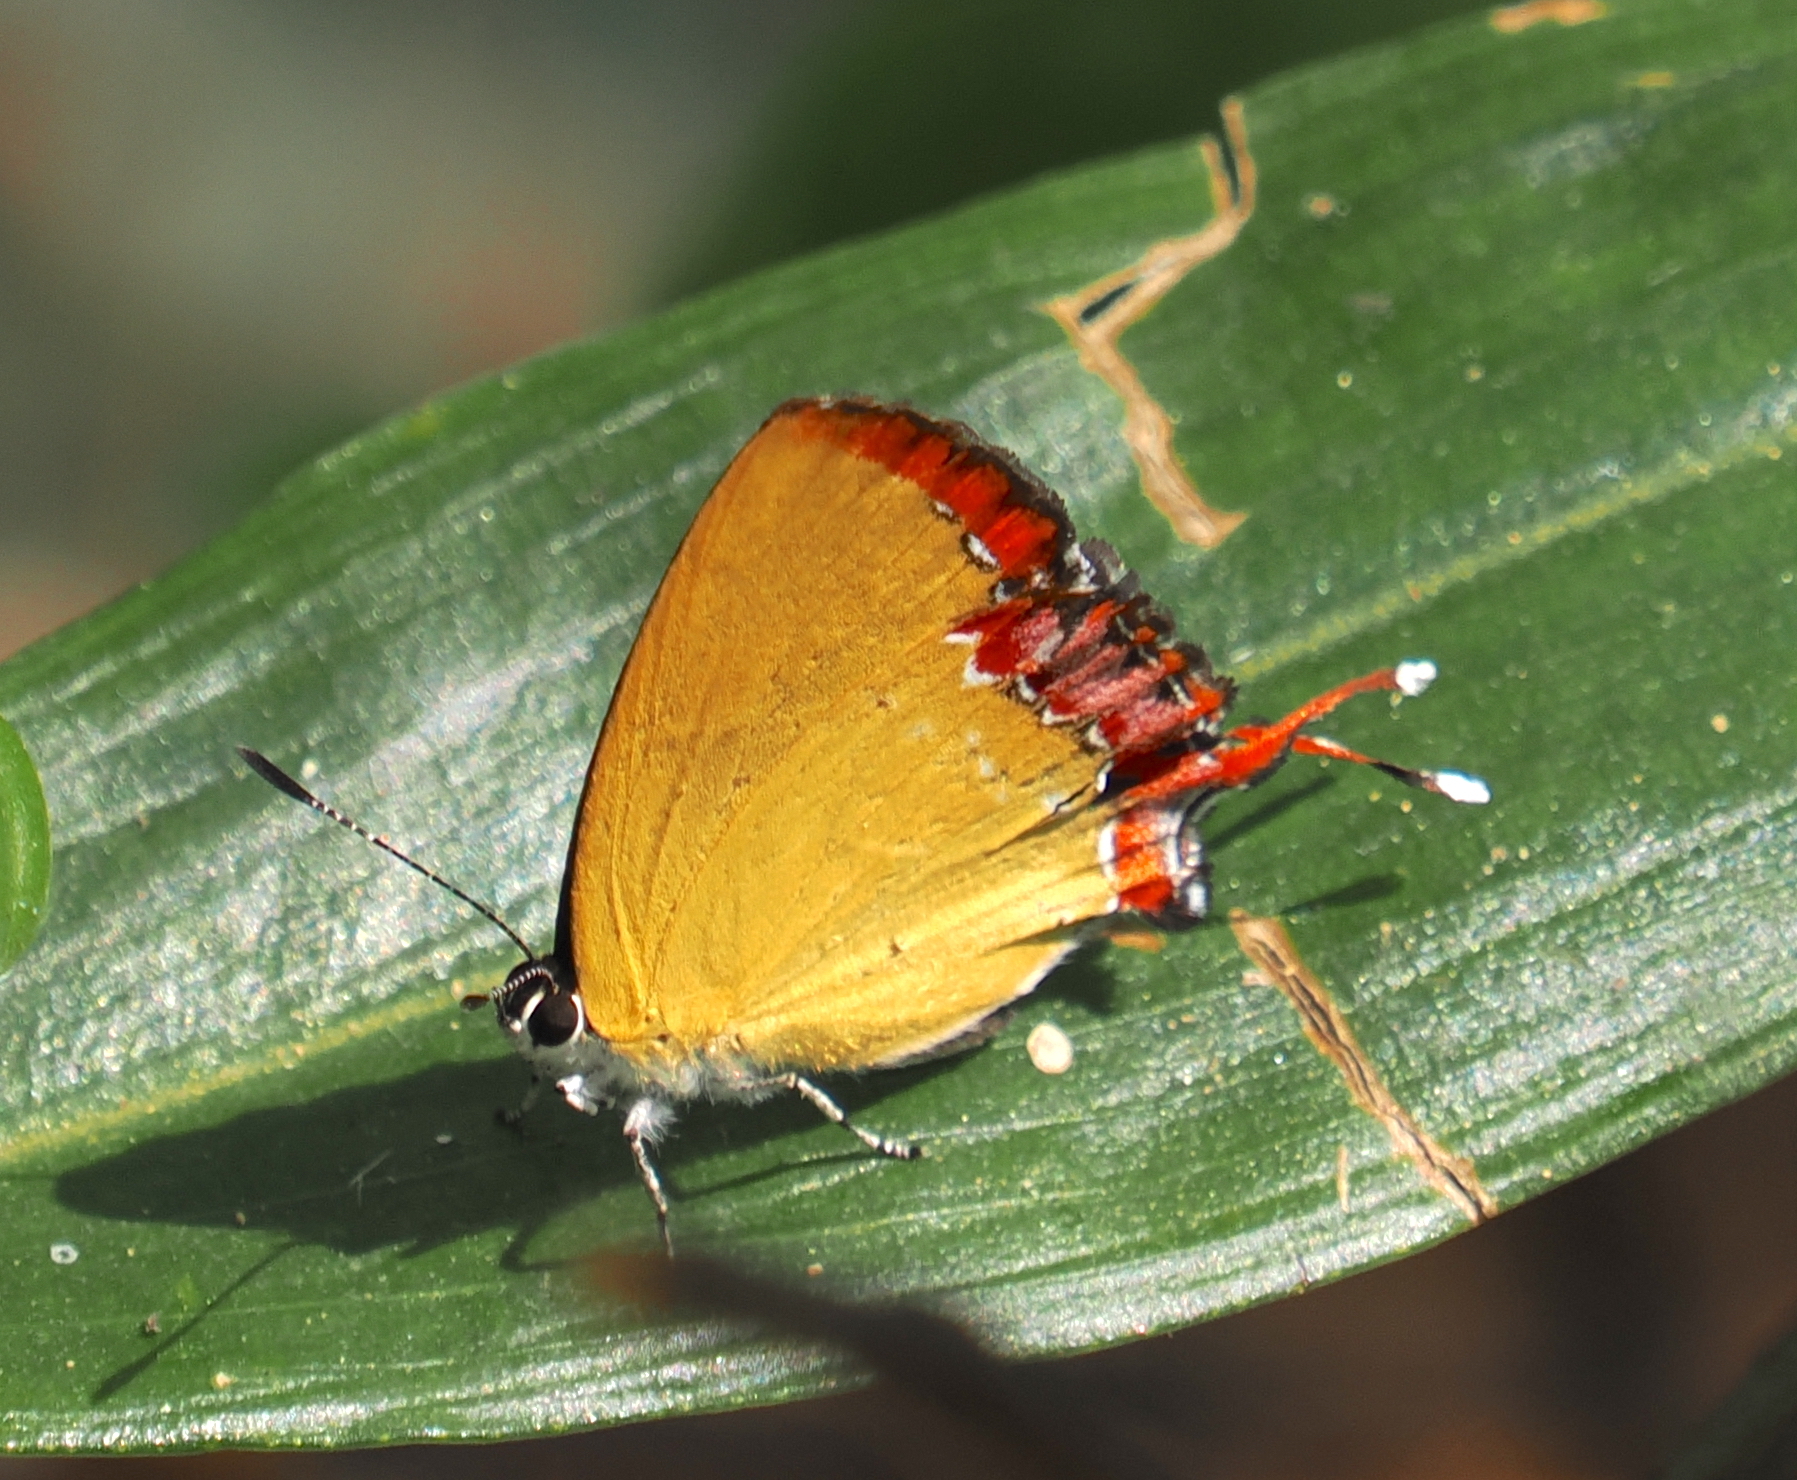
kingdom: Animalia
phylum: Arthropoda
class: Insecta
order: Lepidoptera
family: Lycaenidae
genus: Heliophorus
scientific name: Heliophorus ila
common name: Restricted purple sapphire
